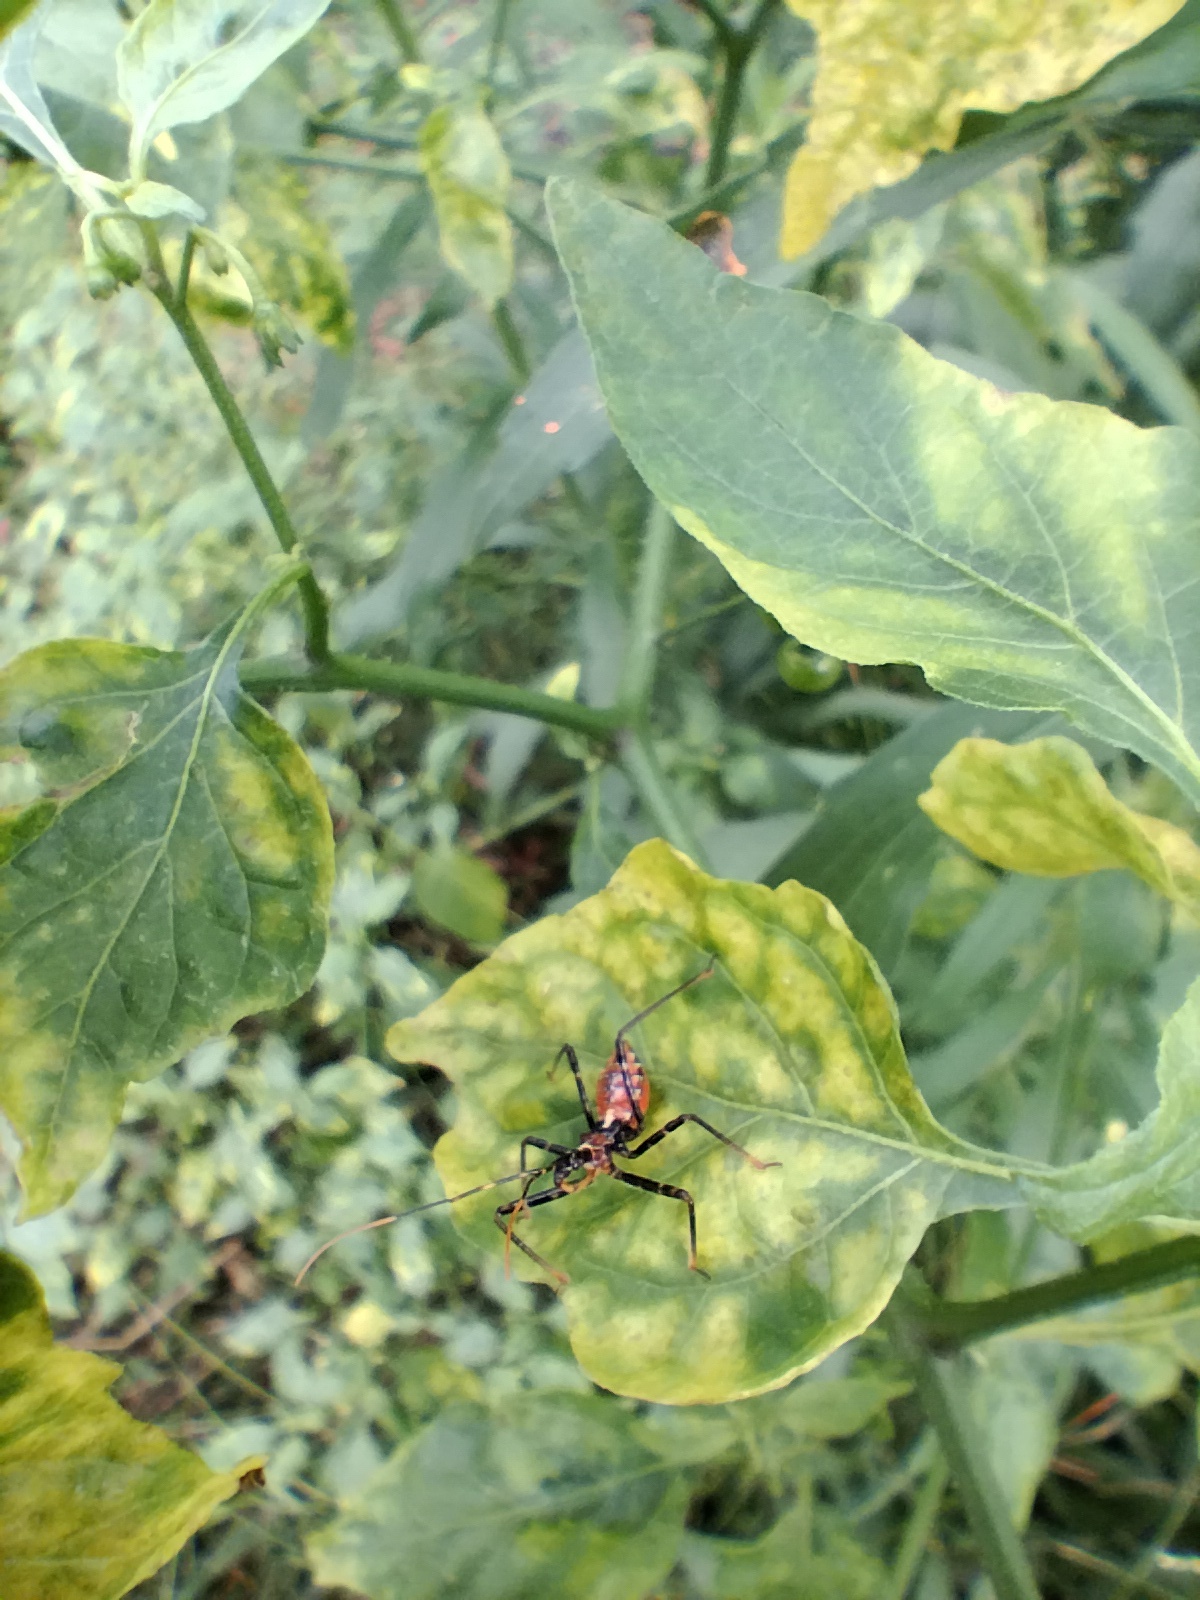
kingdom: Animalia
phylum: Arthropoda
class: Insecta
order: Hemiptera
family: Reduviidae
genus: Pristhesancus
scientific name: Pristhesancus plagipennis
